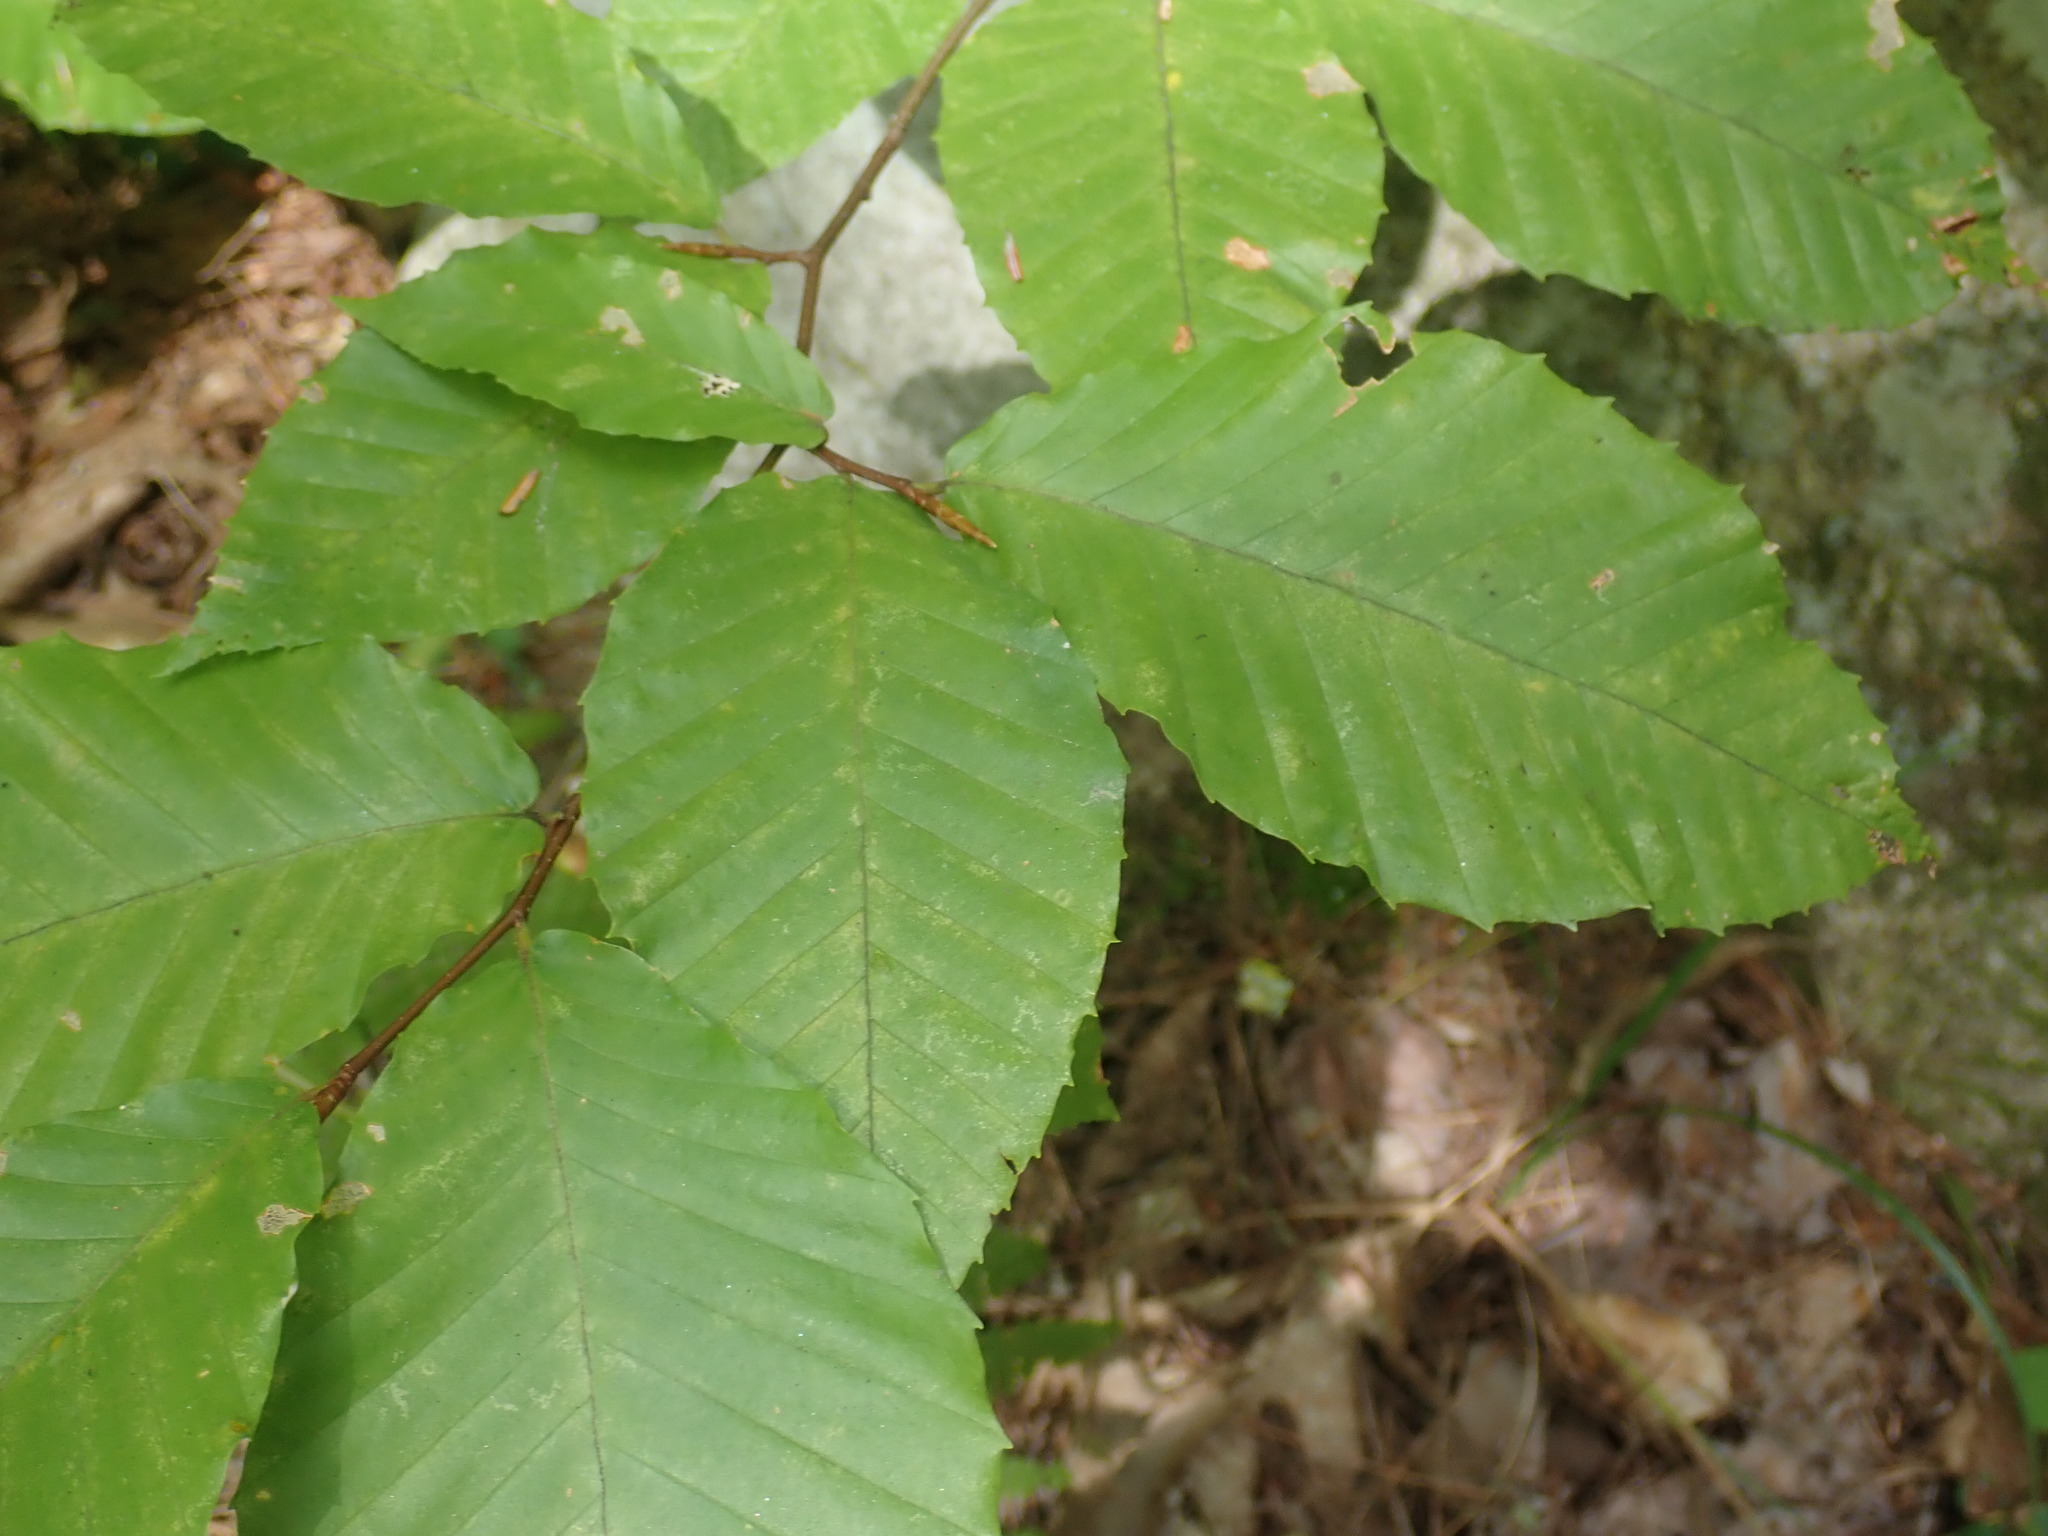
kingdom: Plantae
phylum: Tracheophyta
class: Magnoliopsida
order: Fagales
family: Fagaceae
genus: Fagus
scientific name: Fagus grandifolia
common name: American beech
